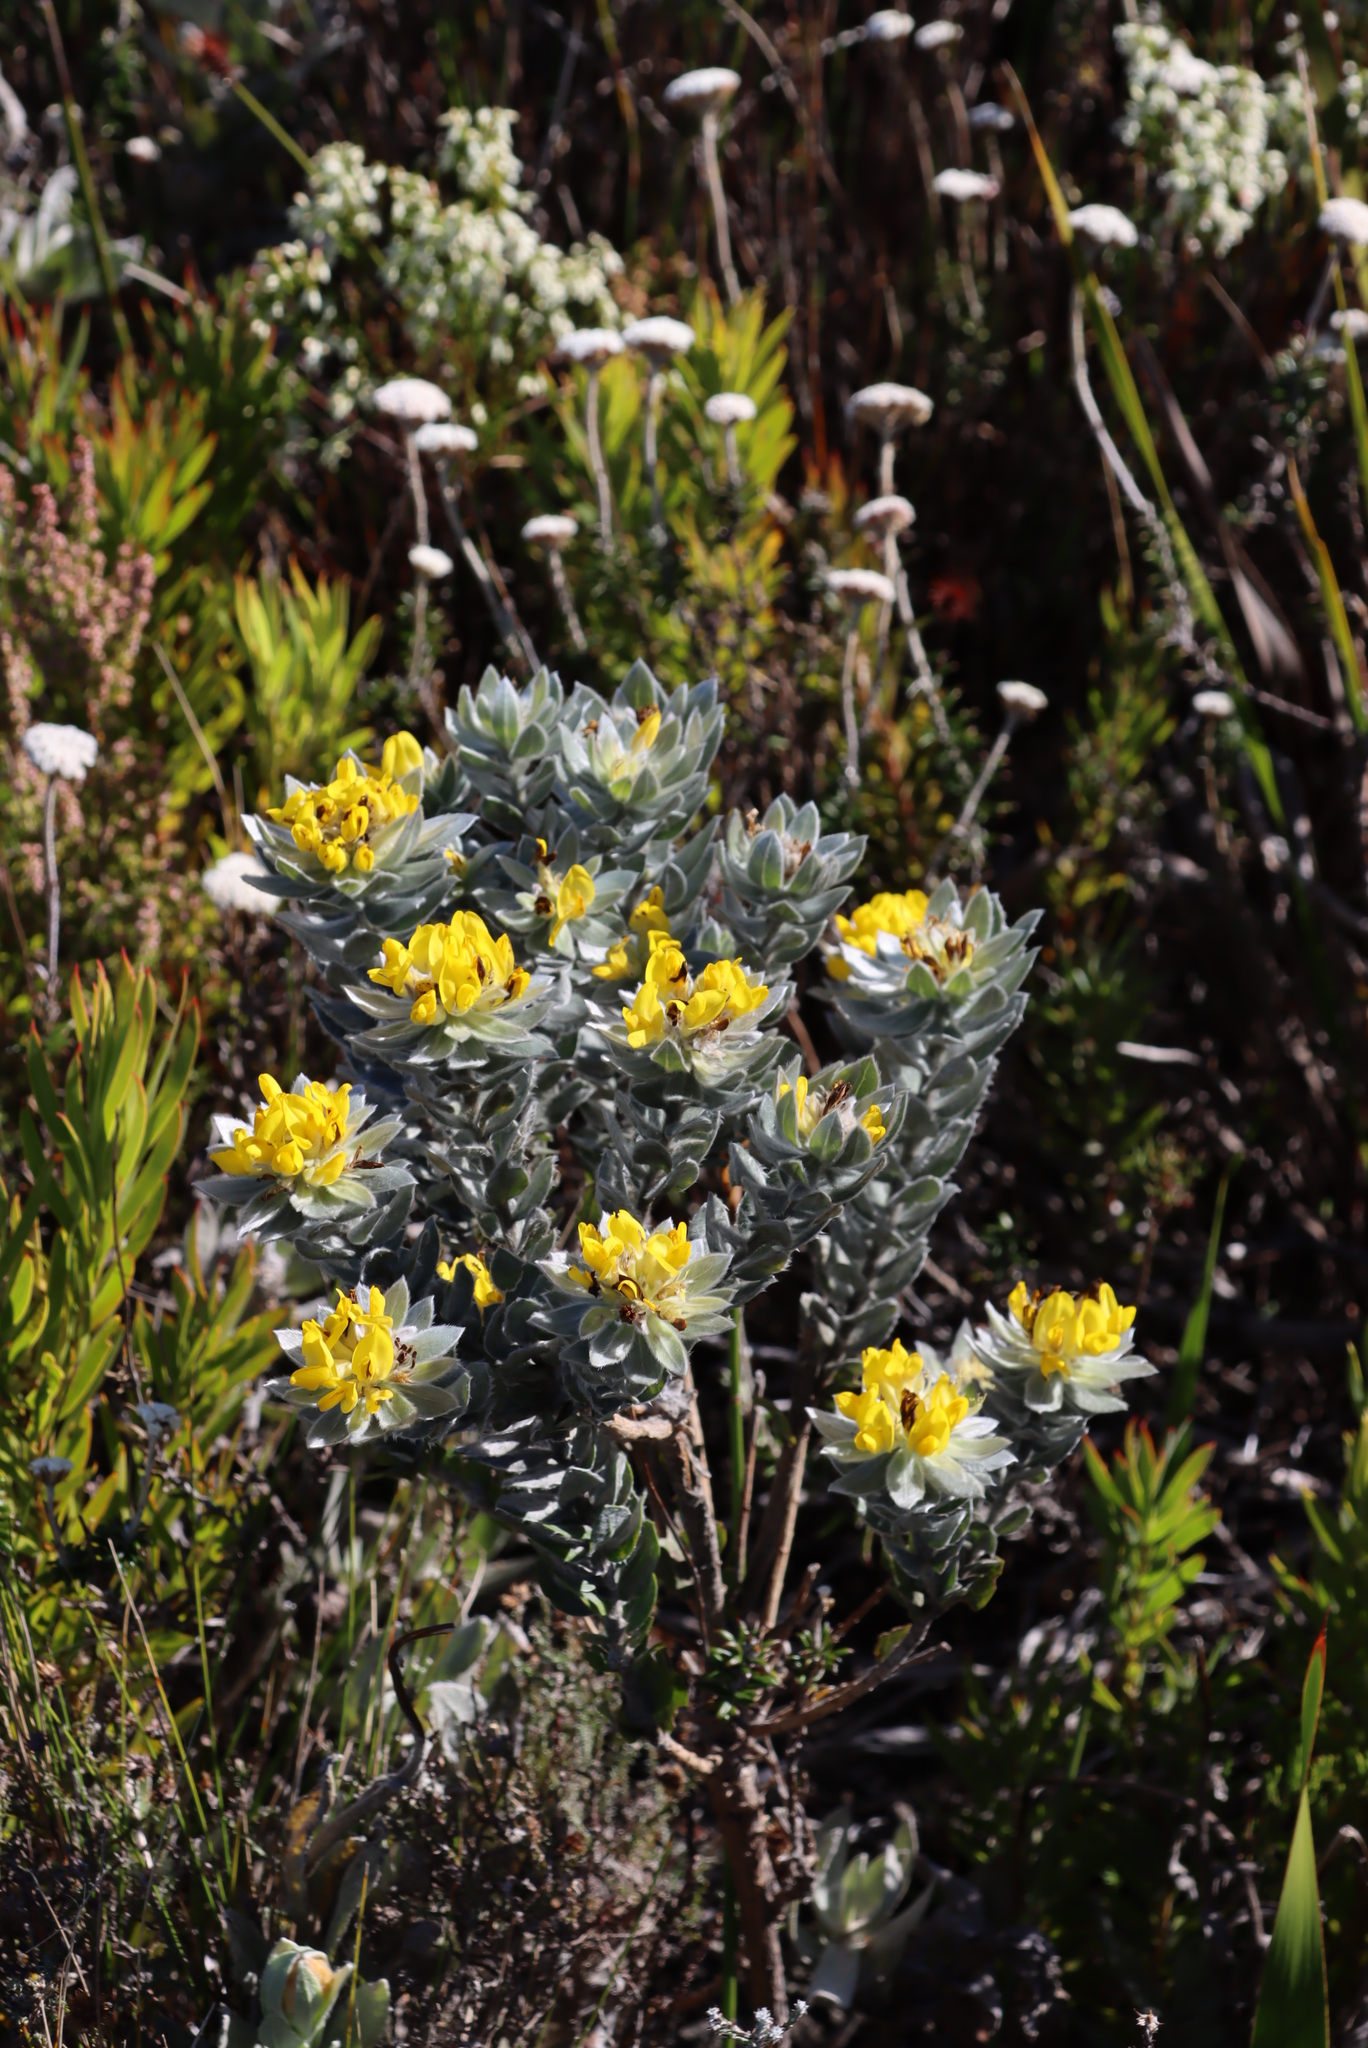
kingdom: Plantae
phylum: Tracheophyta
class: Magnoliopsida
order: Fabales
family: Fabaceae
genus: Xiphotheca
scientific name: Xiphotheca fruticosa
